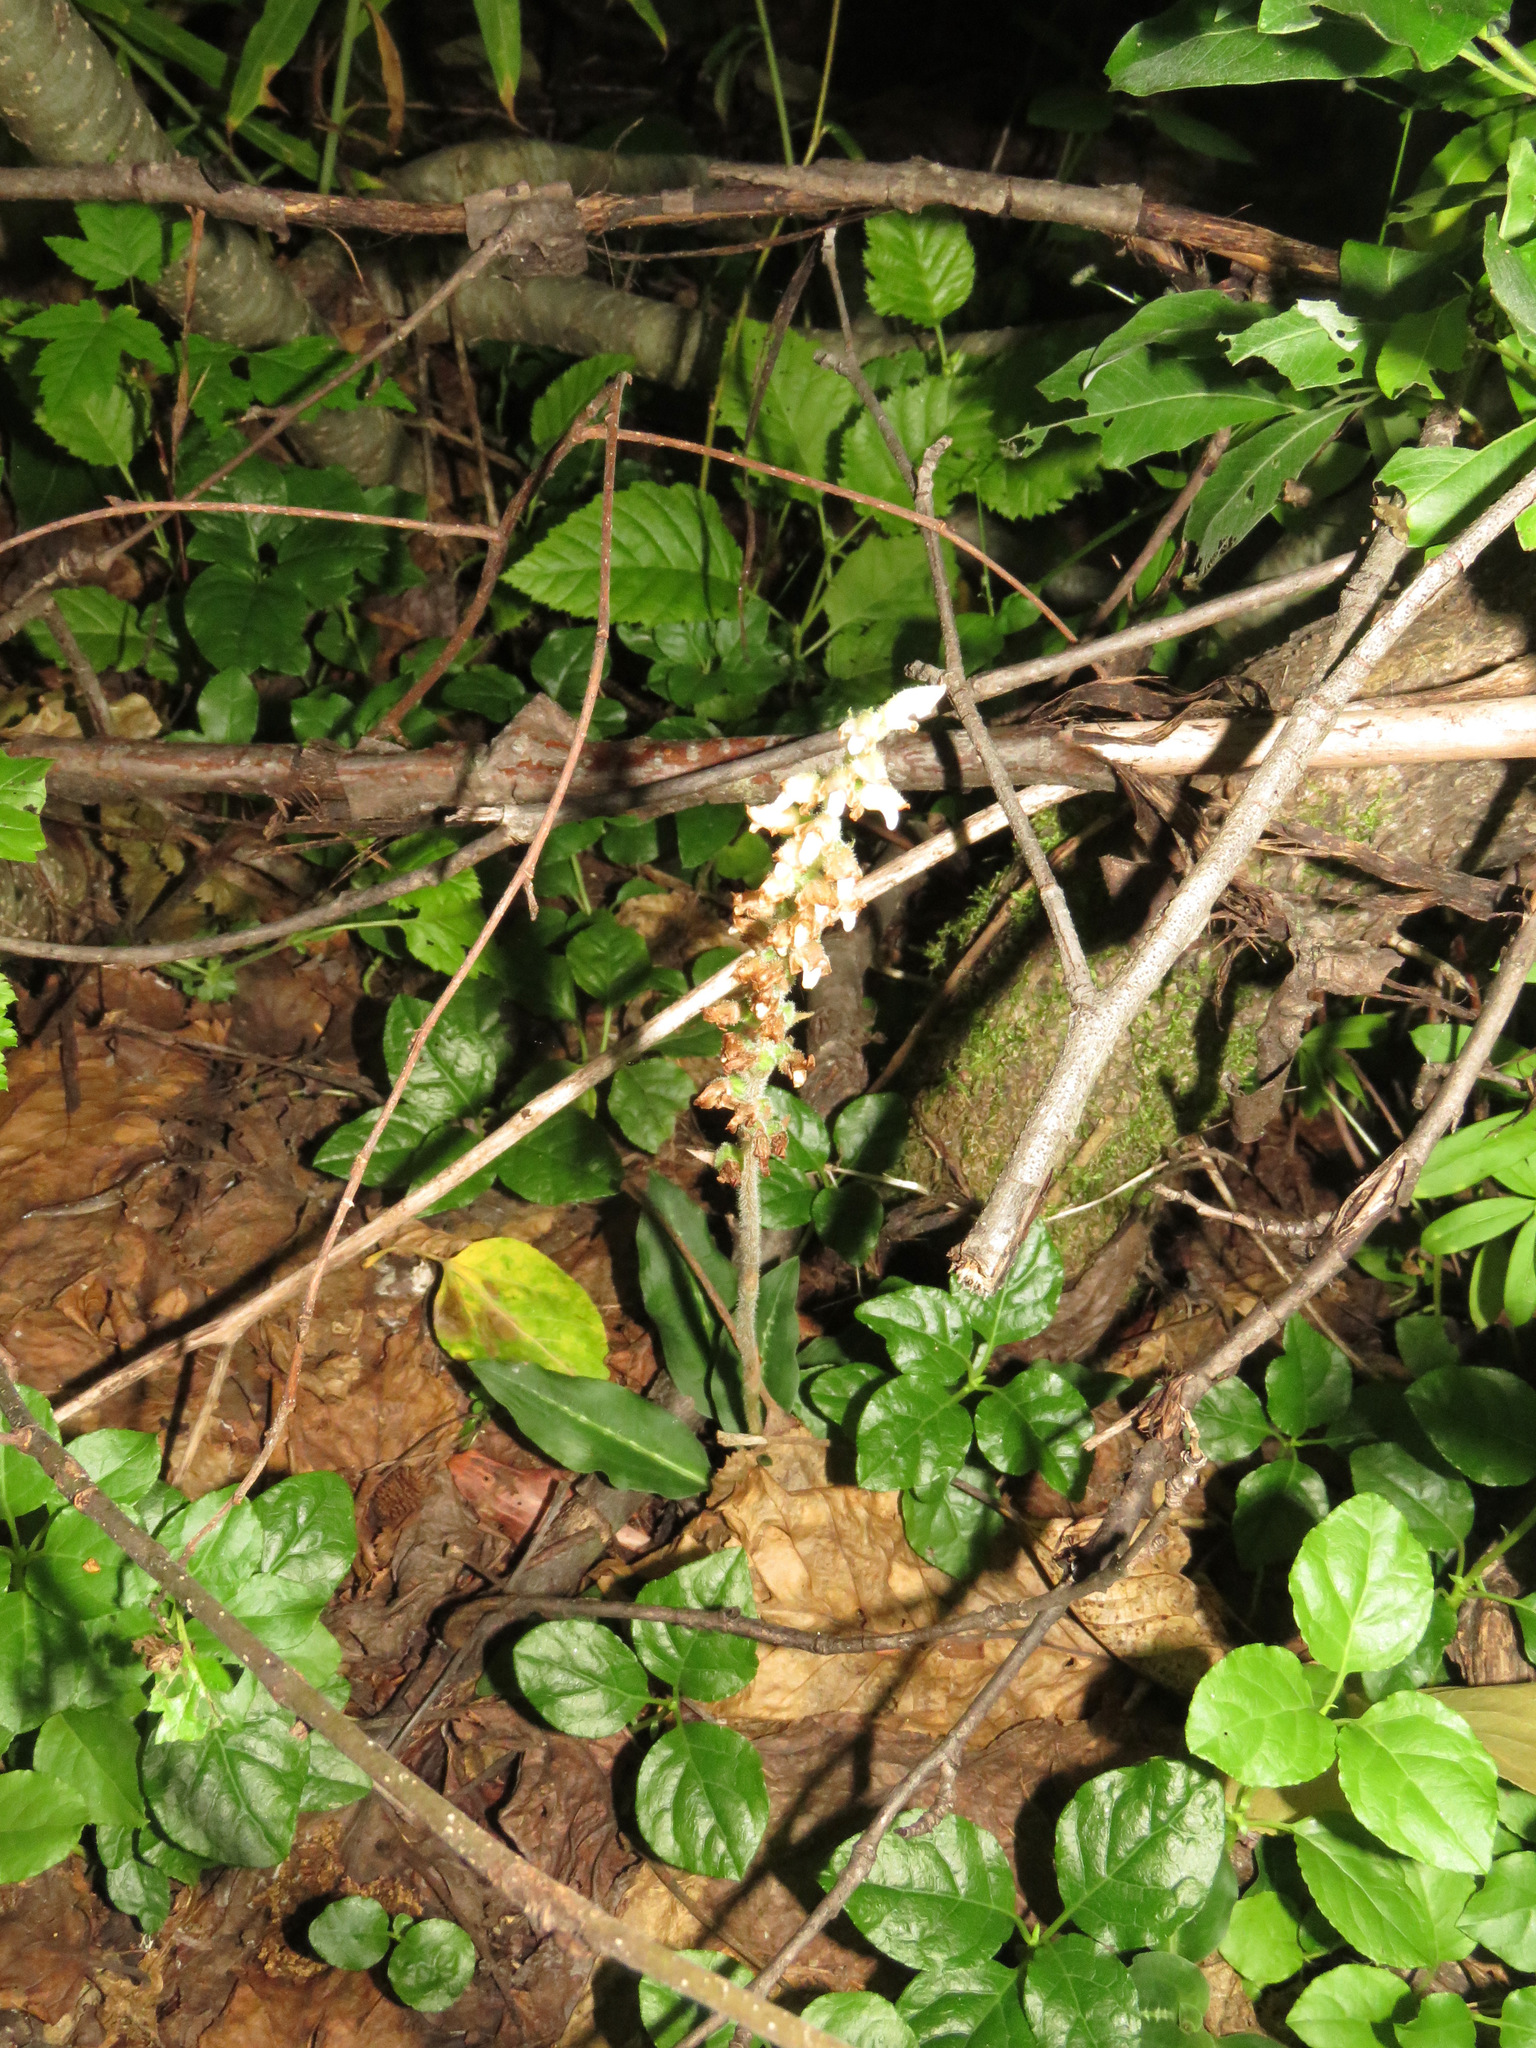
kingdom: Plantae
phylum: Tracheophyta
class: Liliopsida
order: Asparagales
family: Orchidaceae
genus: Goodyera
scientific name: Goodyera oblongifolia
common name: Giant rattlesnake-plantain
